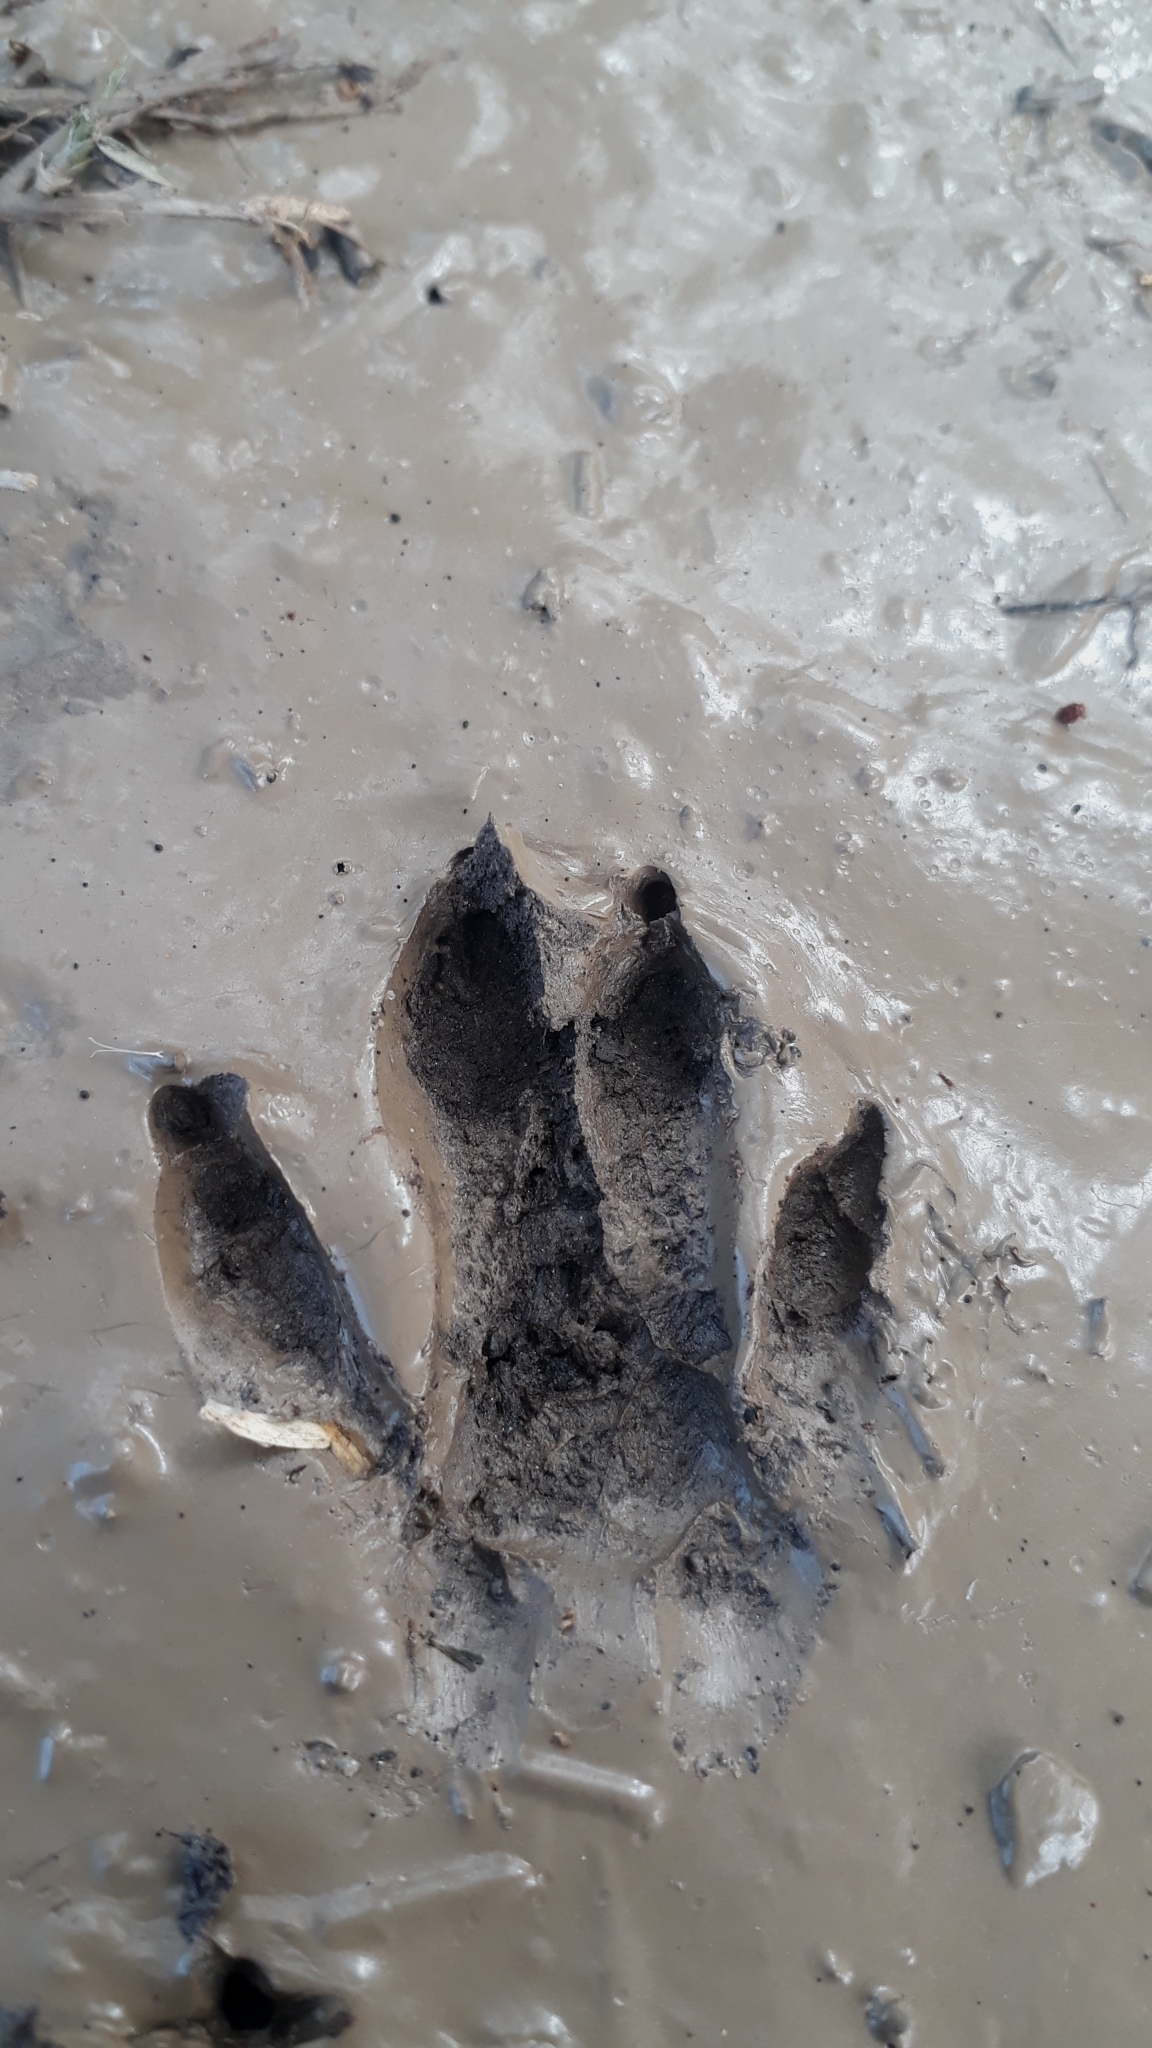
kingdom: Animalia
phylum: Chordata
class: Mammalia
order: Carnivora
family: Herpestidae
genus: Atilax
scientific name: Atilax paludinosus
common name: Marsh mongoose
